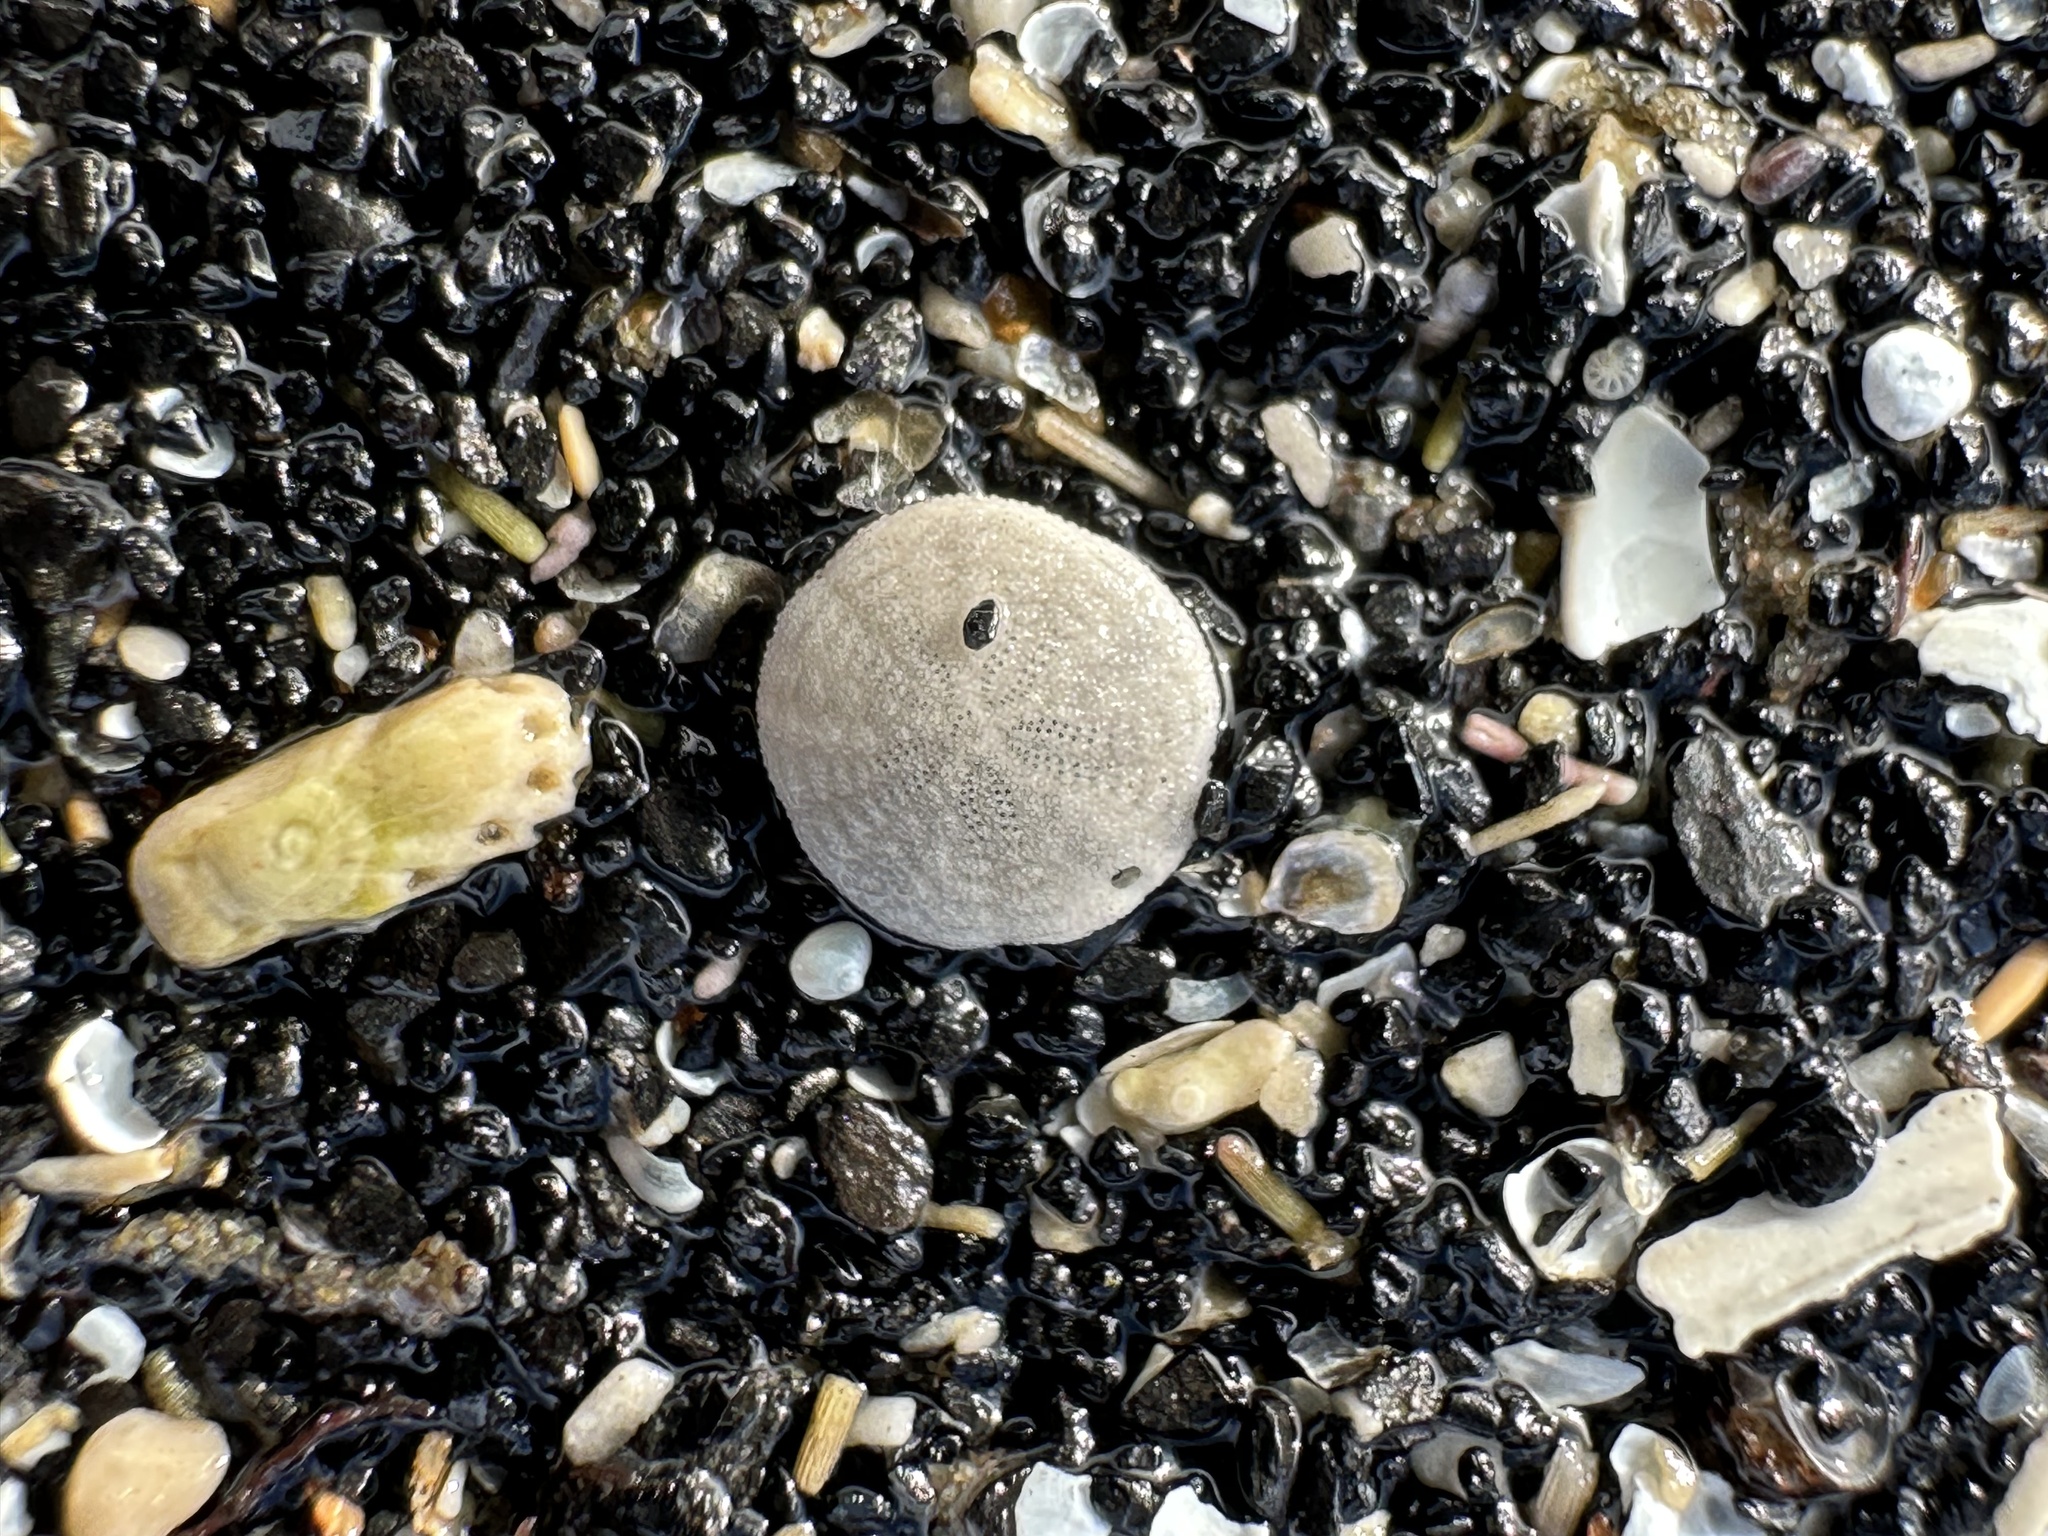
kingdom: Animalia
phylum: Echinodermata
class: Echinoidea
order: Echinolampadacea
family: Echinarachniidae
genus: Echinarachnius
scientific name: Echinarachnius parma
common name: Common sand dollar
